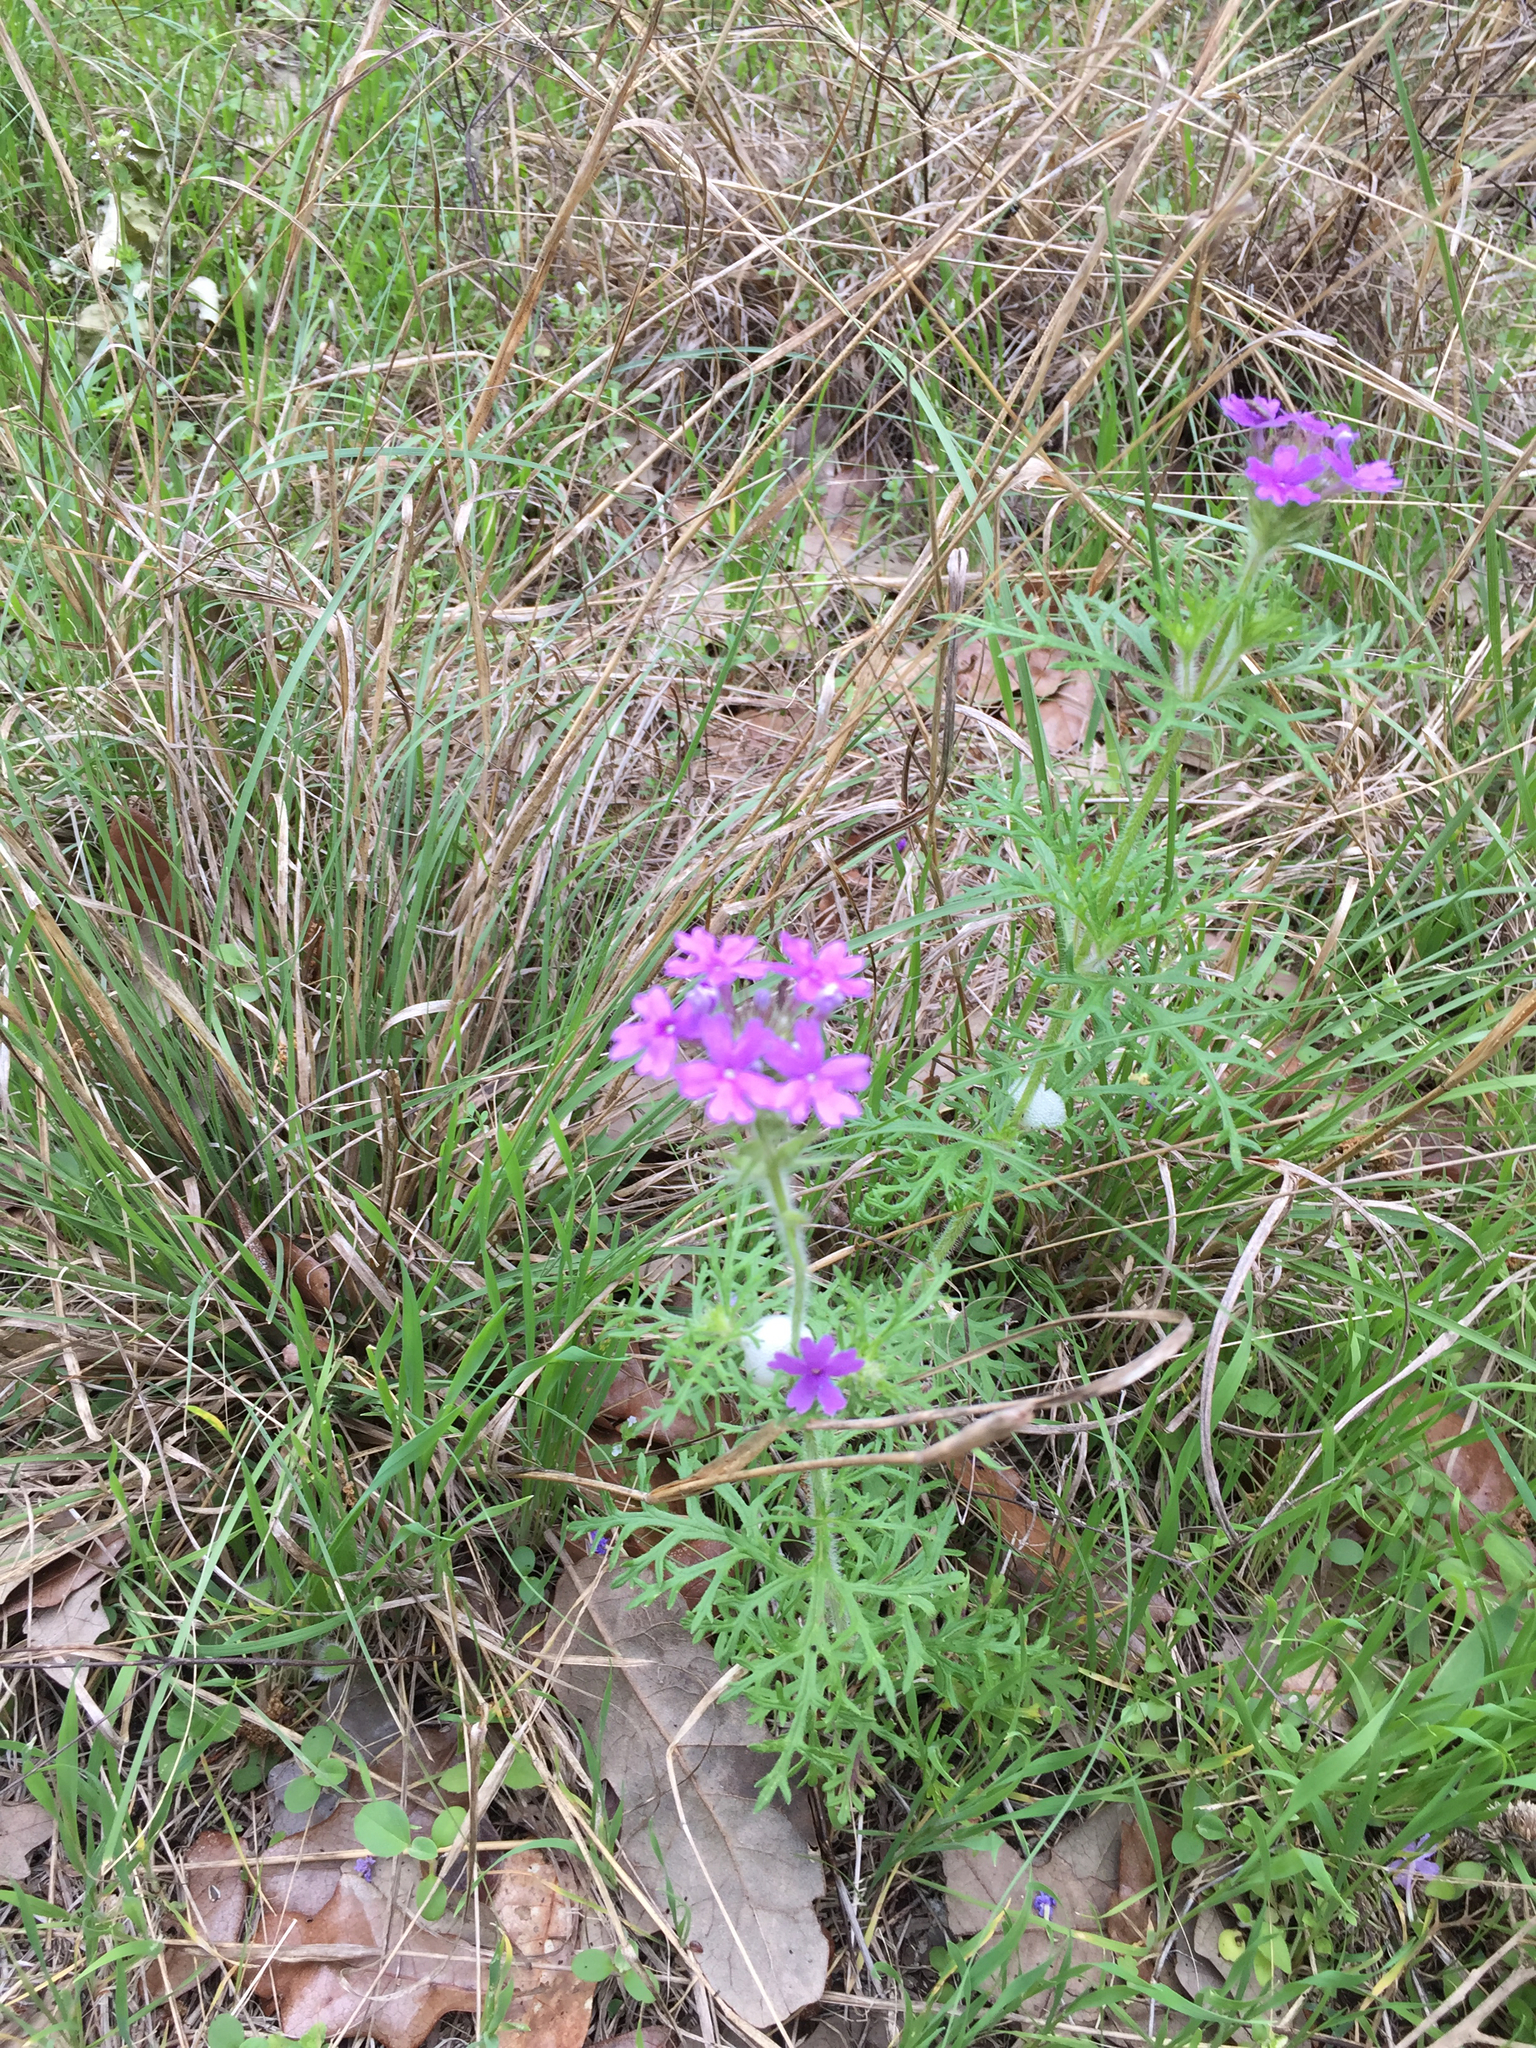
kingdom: Plantae
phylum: Tracheophyta
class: Magnoliopsida
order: Lamiales
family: Verbenaceae
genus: Verbena
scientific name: Verbena bipinnatifida
